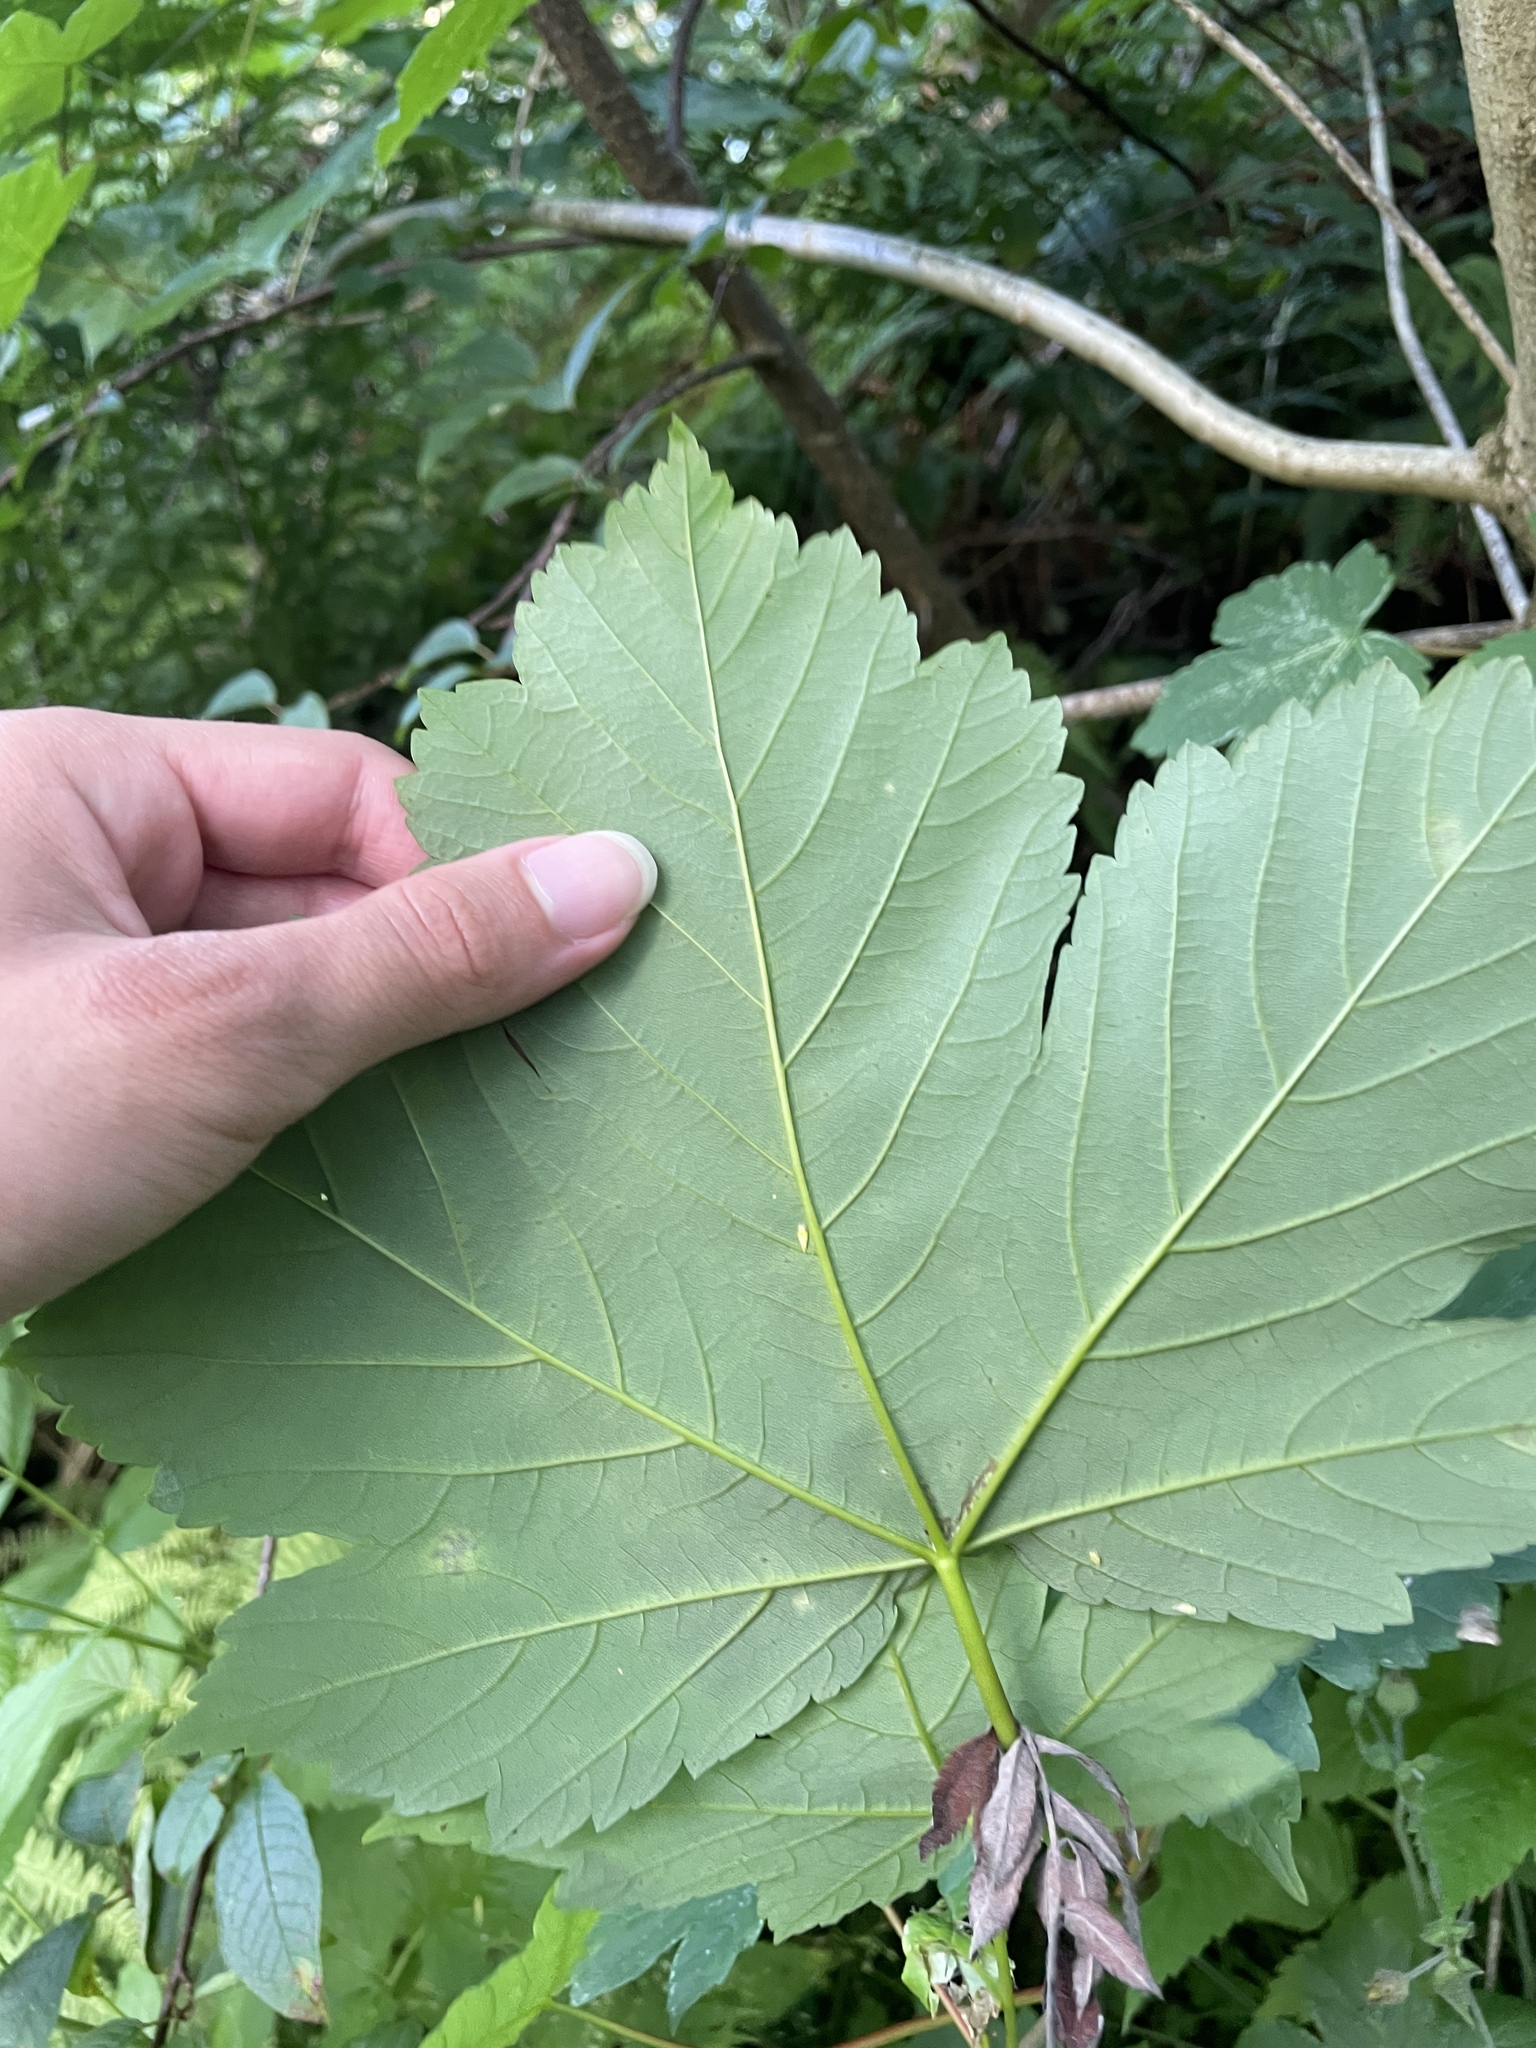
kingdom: Plantae
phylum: Tracheophyta
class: Magnoliopsida
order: Sapindales
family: Sapindaceae
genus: Acer
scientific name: Acer pseudoplatanus
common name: Sycamore
